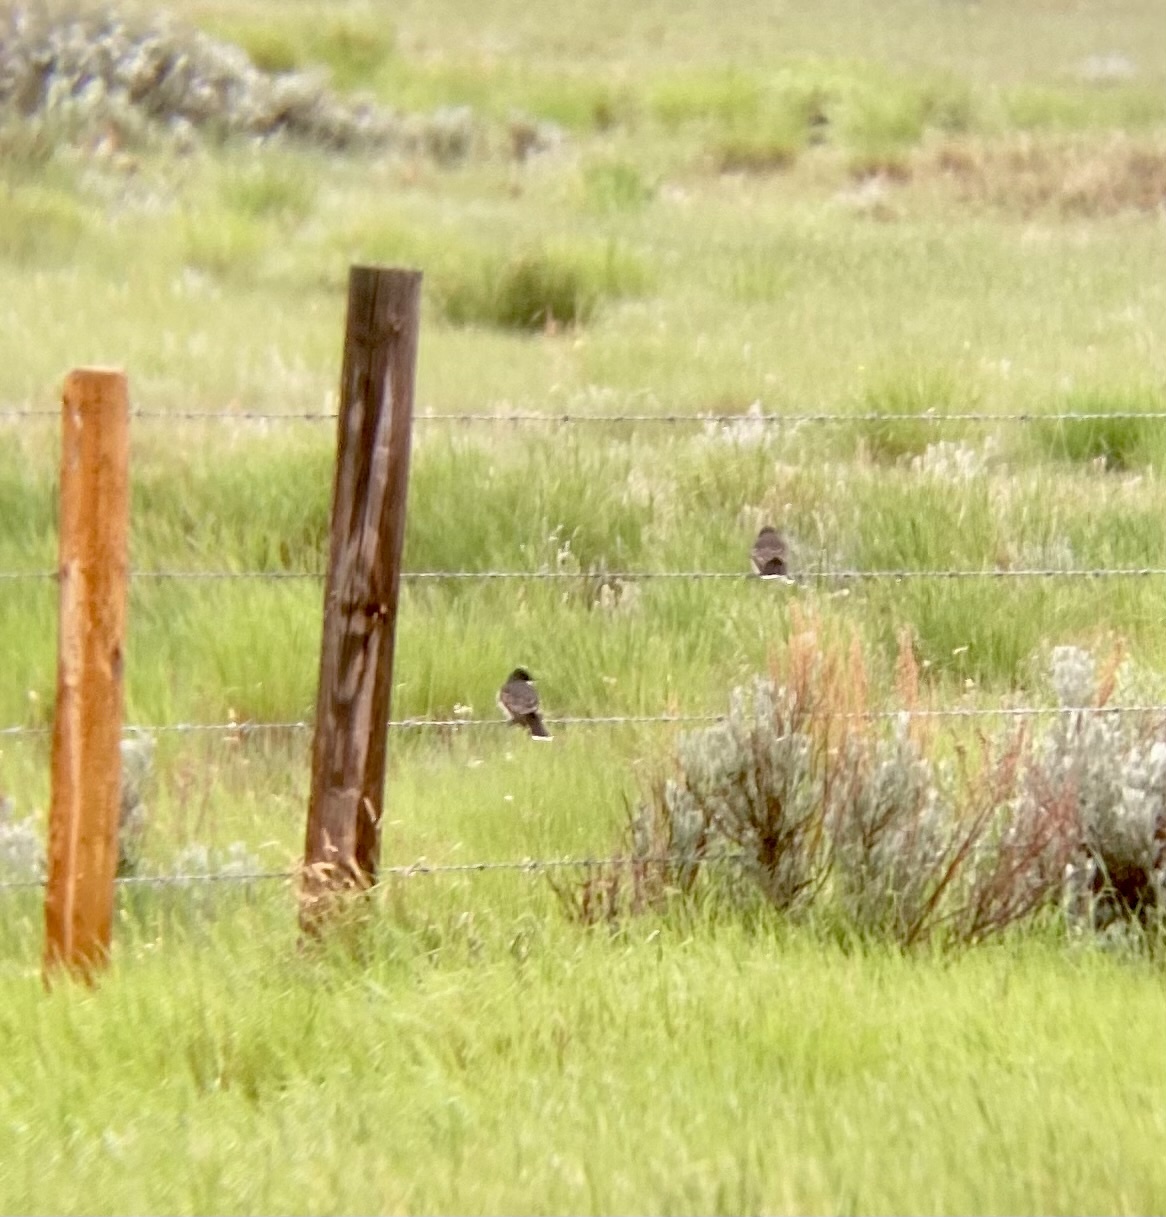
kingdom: Animalia
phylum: Chordata
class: Aves
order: Passeriformes
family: Tyrannidae
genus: Tyrannus
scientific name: Tyrannus tyrannus
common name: Eastern kingbird
